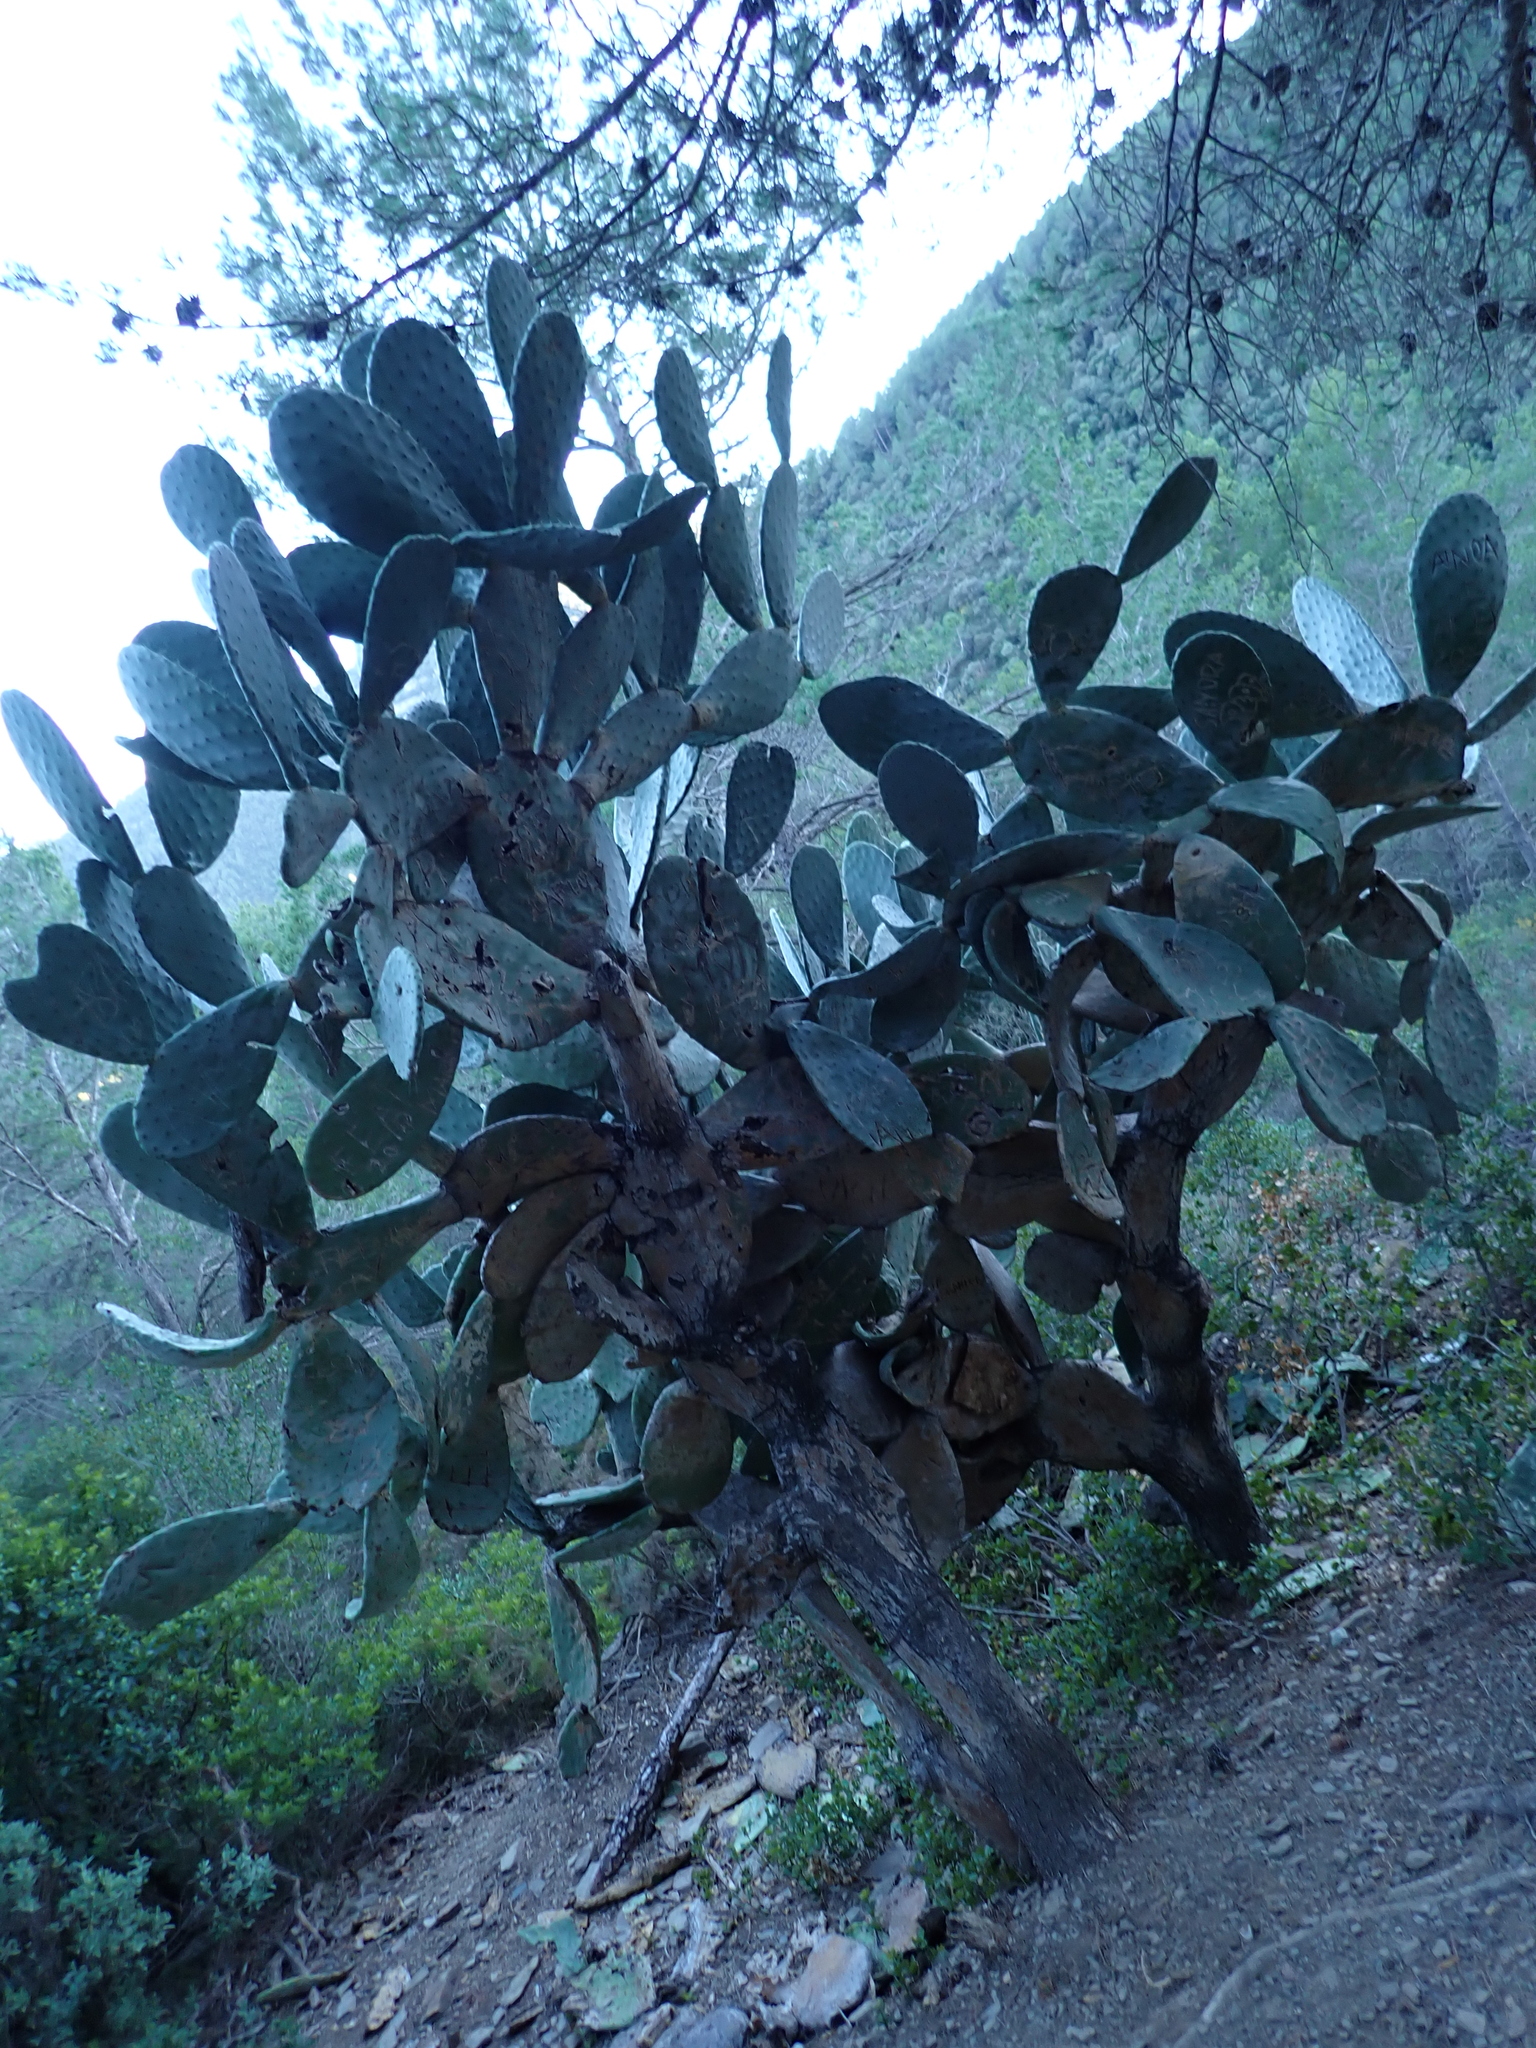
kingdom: Plantae
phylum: Tracheophyta
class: Magnoliopsida
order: Caryophyllales
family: Cactaceae
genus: Opuntia
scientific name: Opuntia ficus-indica
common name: Barbary fig
